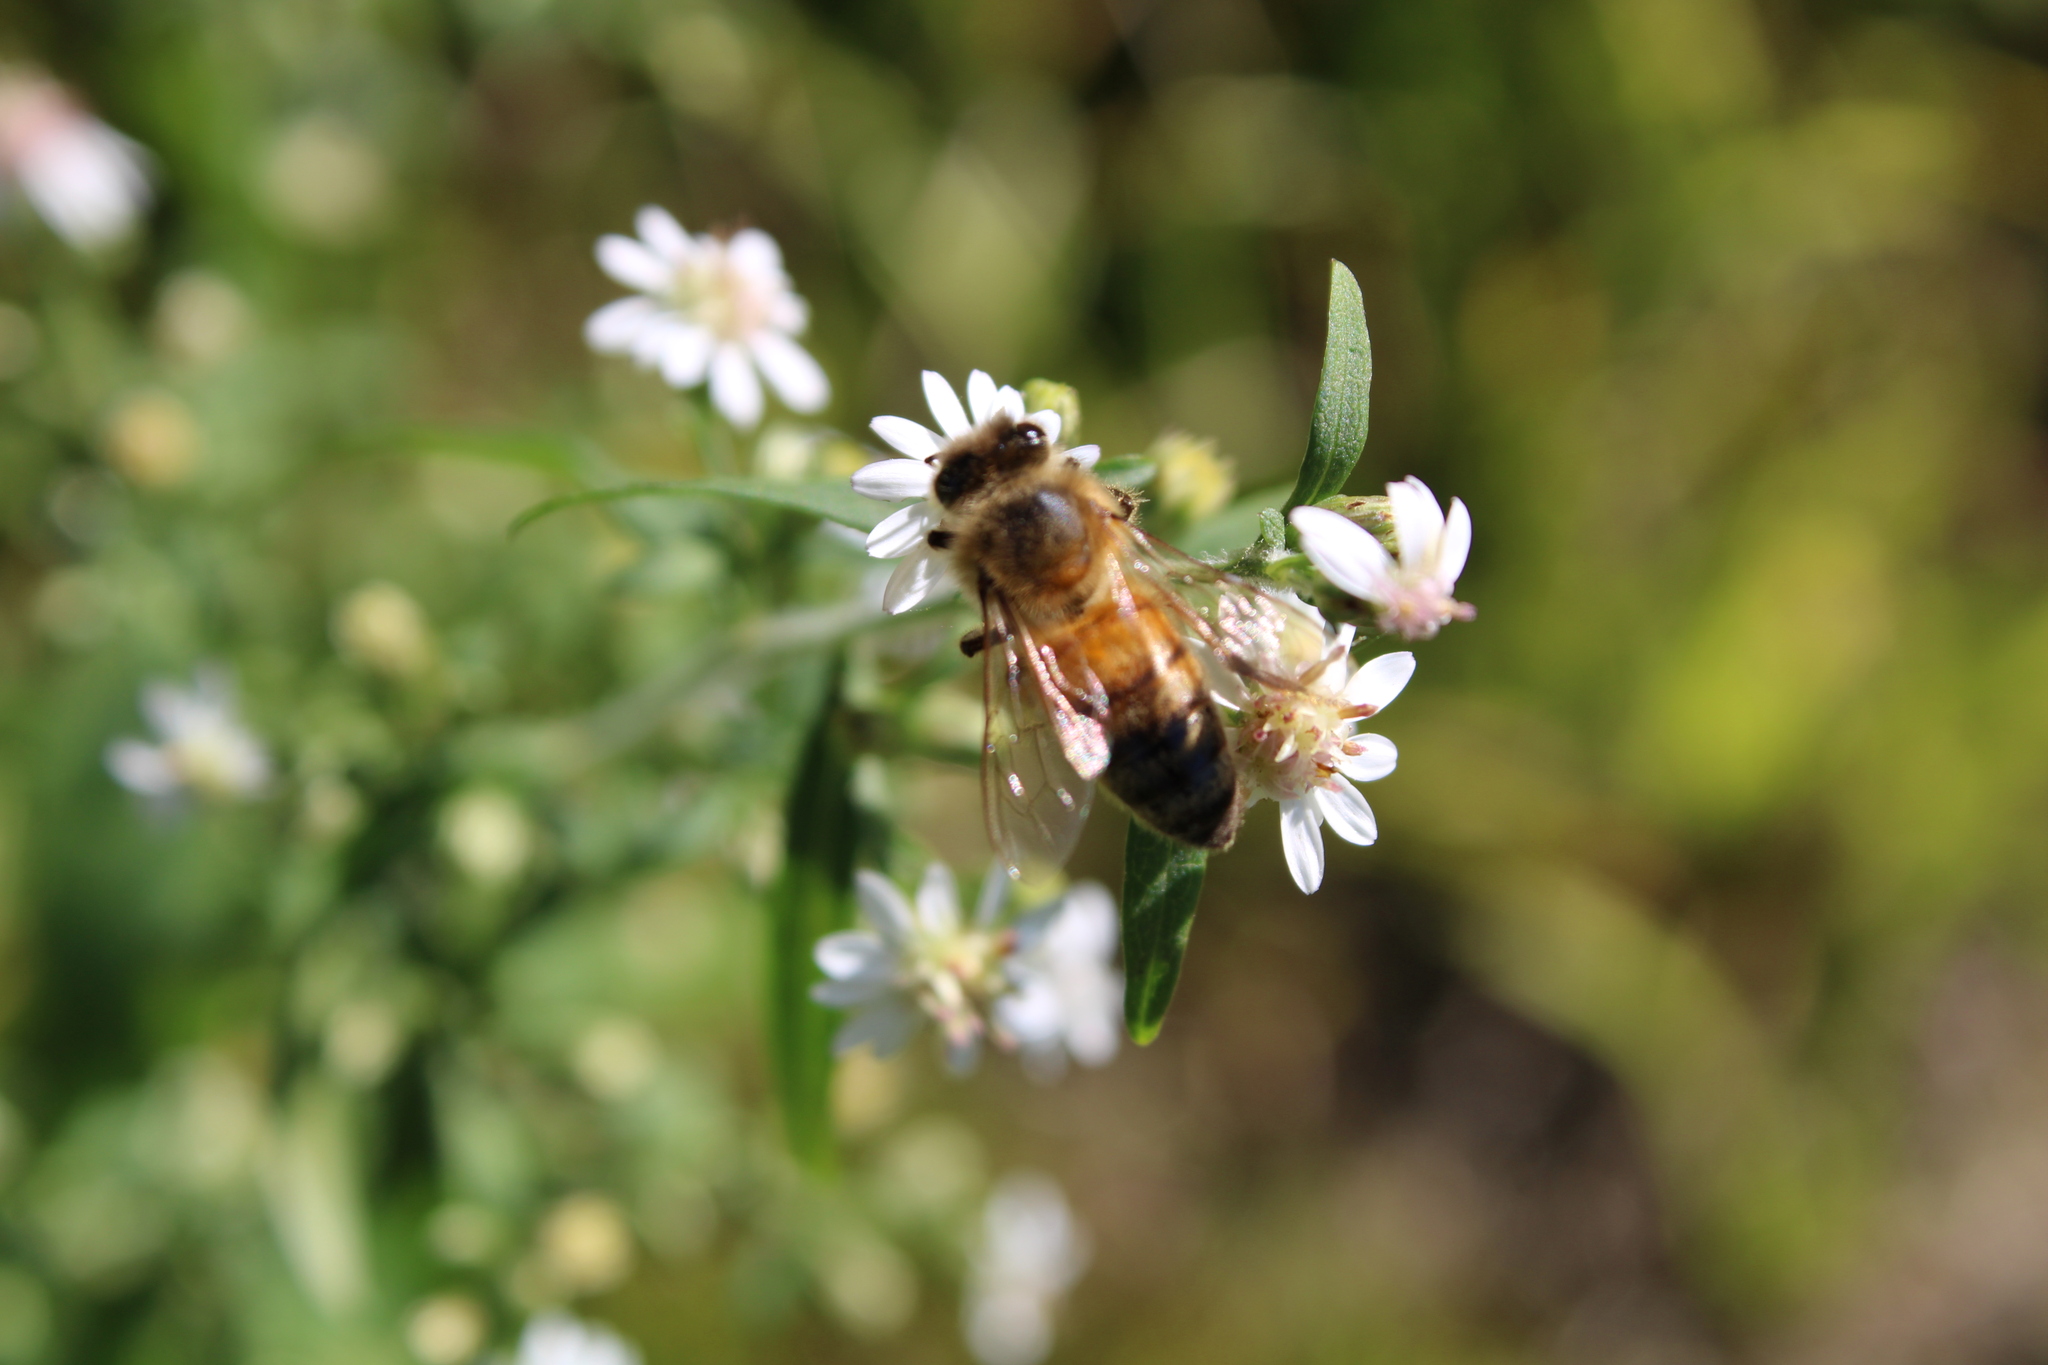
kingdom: Animalia
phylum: Arthropoda
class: Insecta
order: Hymenoptera
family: Apidae
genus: Apis
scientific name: Apis mellifera
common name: Honey bee
